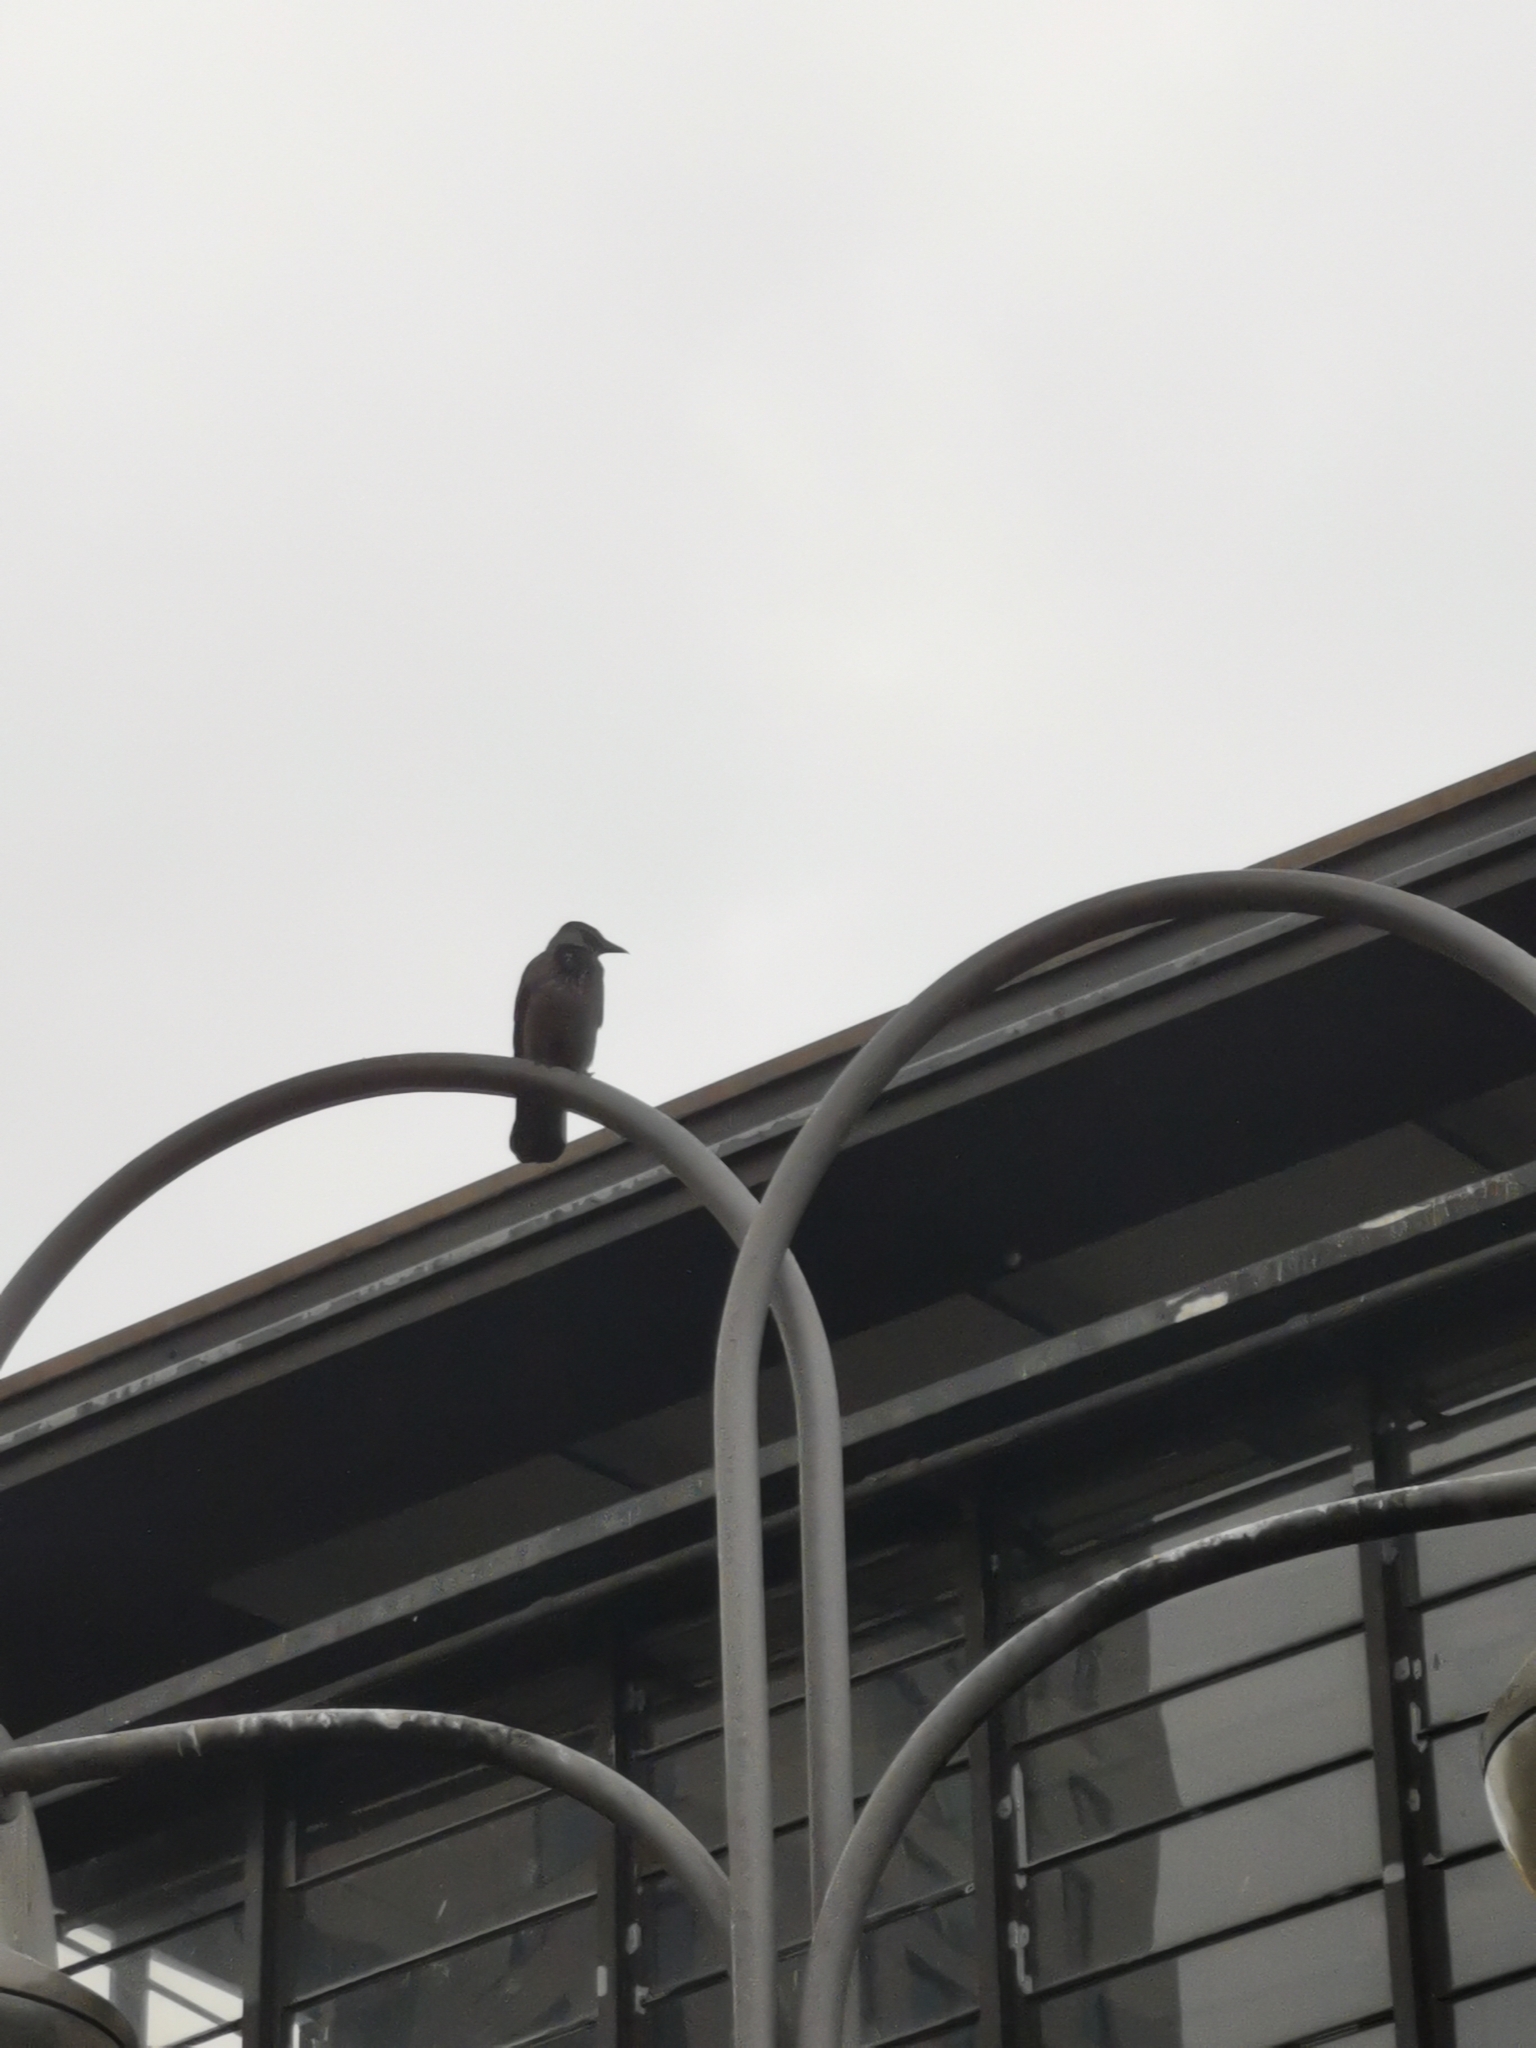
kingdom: Animalia
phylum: Chordata
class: Aves
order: Passeriformes
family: Corvidae
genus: Corvus
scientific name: Corvus cornix
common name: Hooded crow
